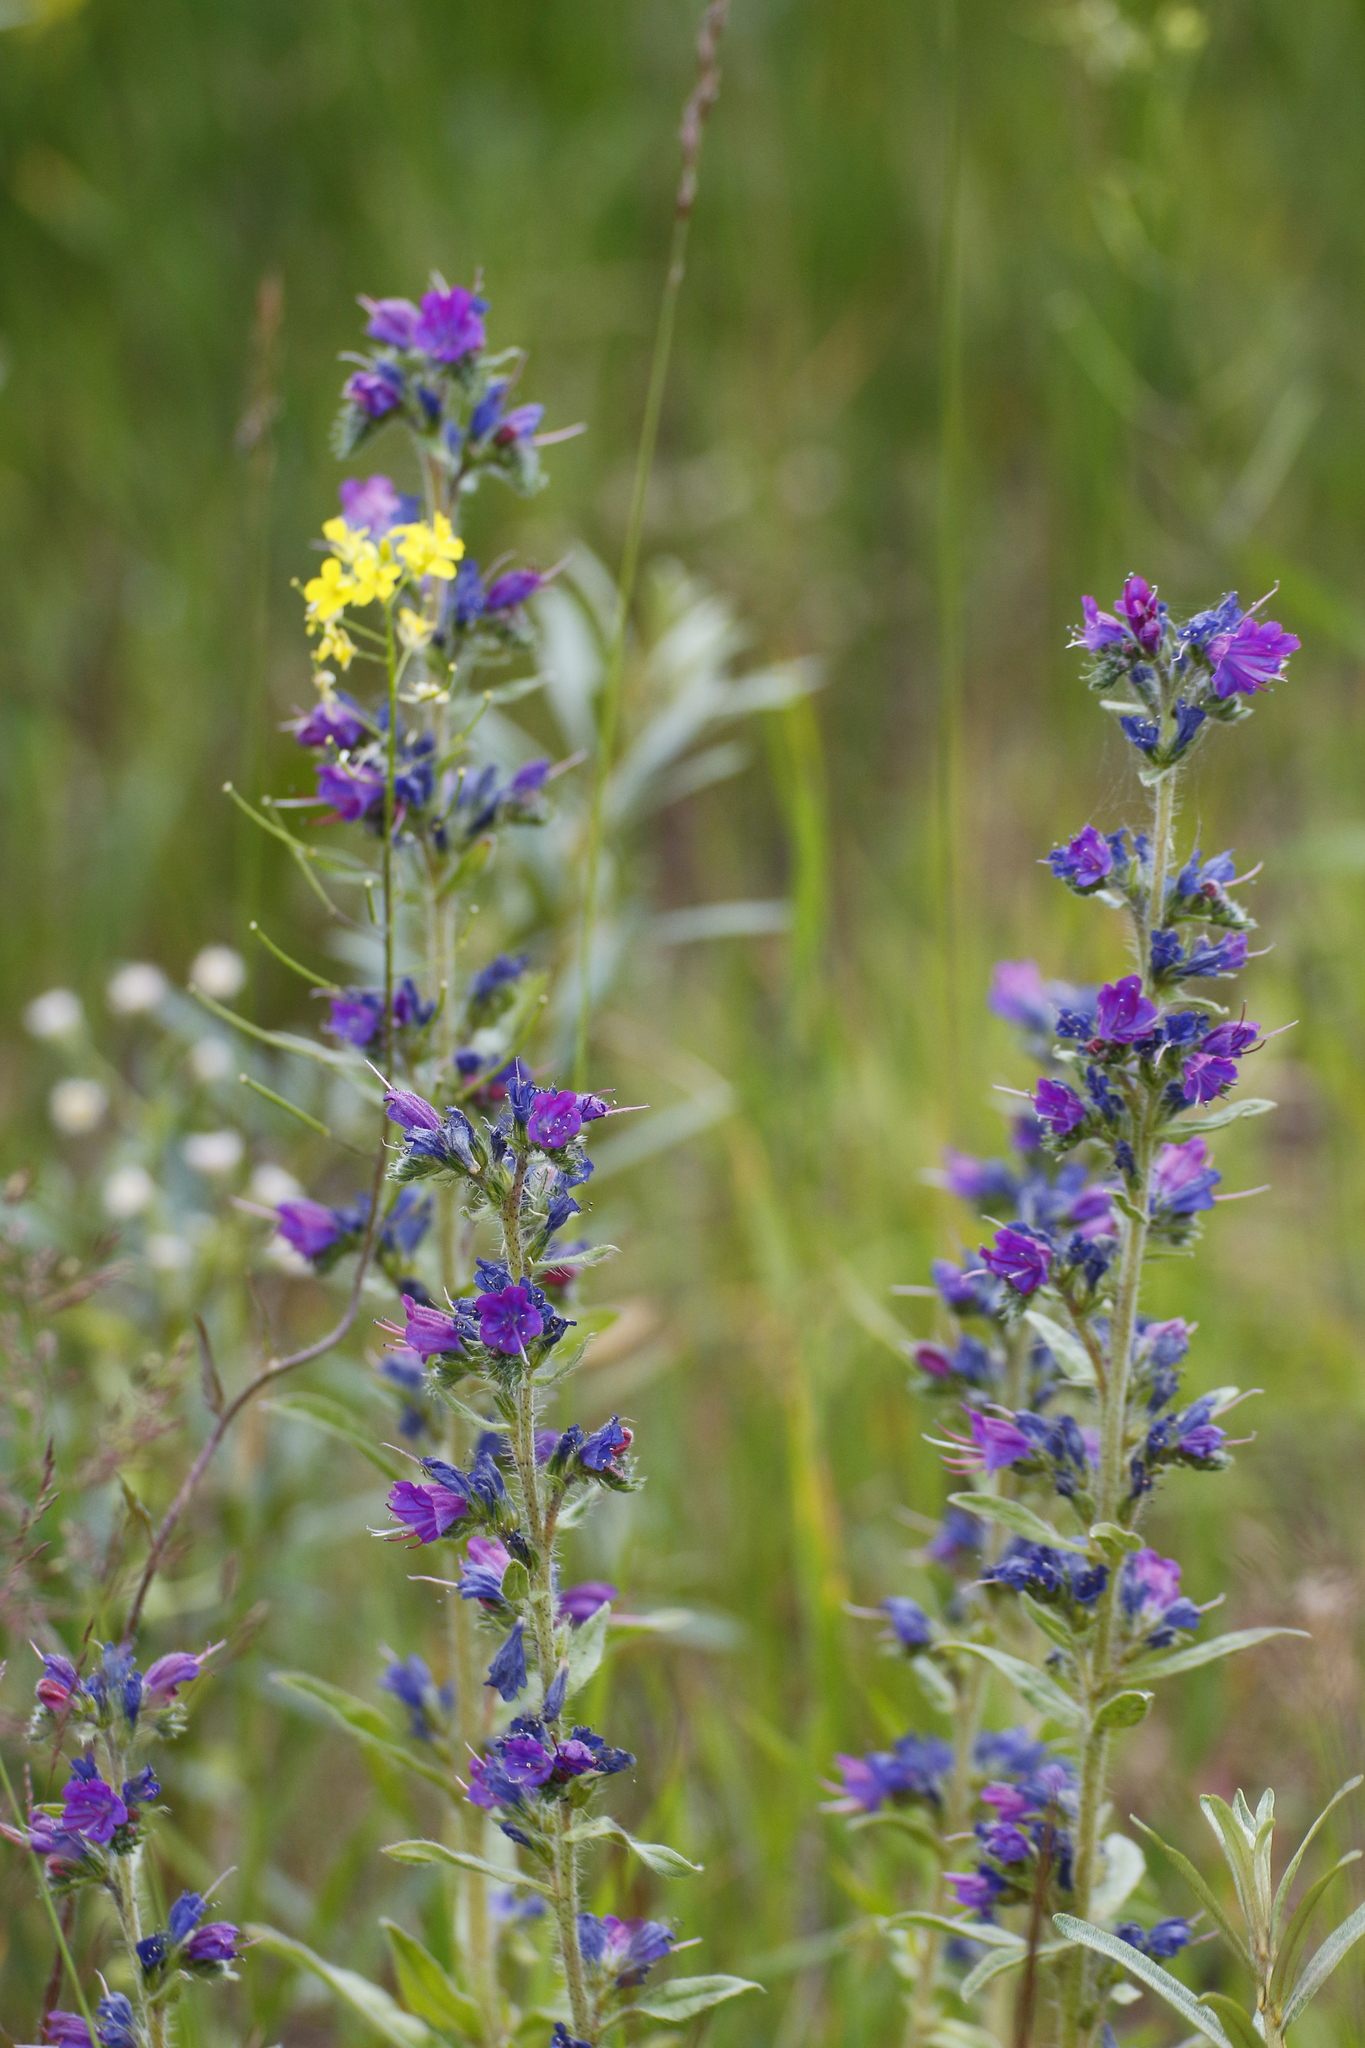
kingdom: Plantae
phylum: Tracheophyta
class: Magnoliopsida
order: Boraginales
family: Boraginaceae
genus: Echium
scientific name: Echium vulgare
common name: Common viper's bugloss
